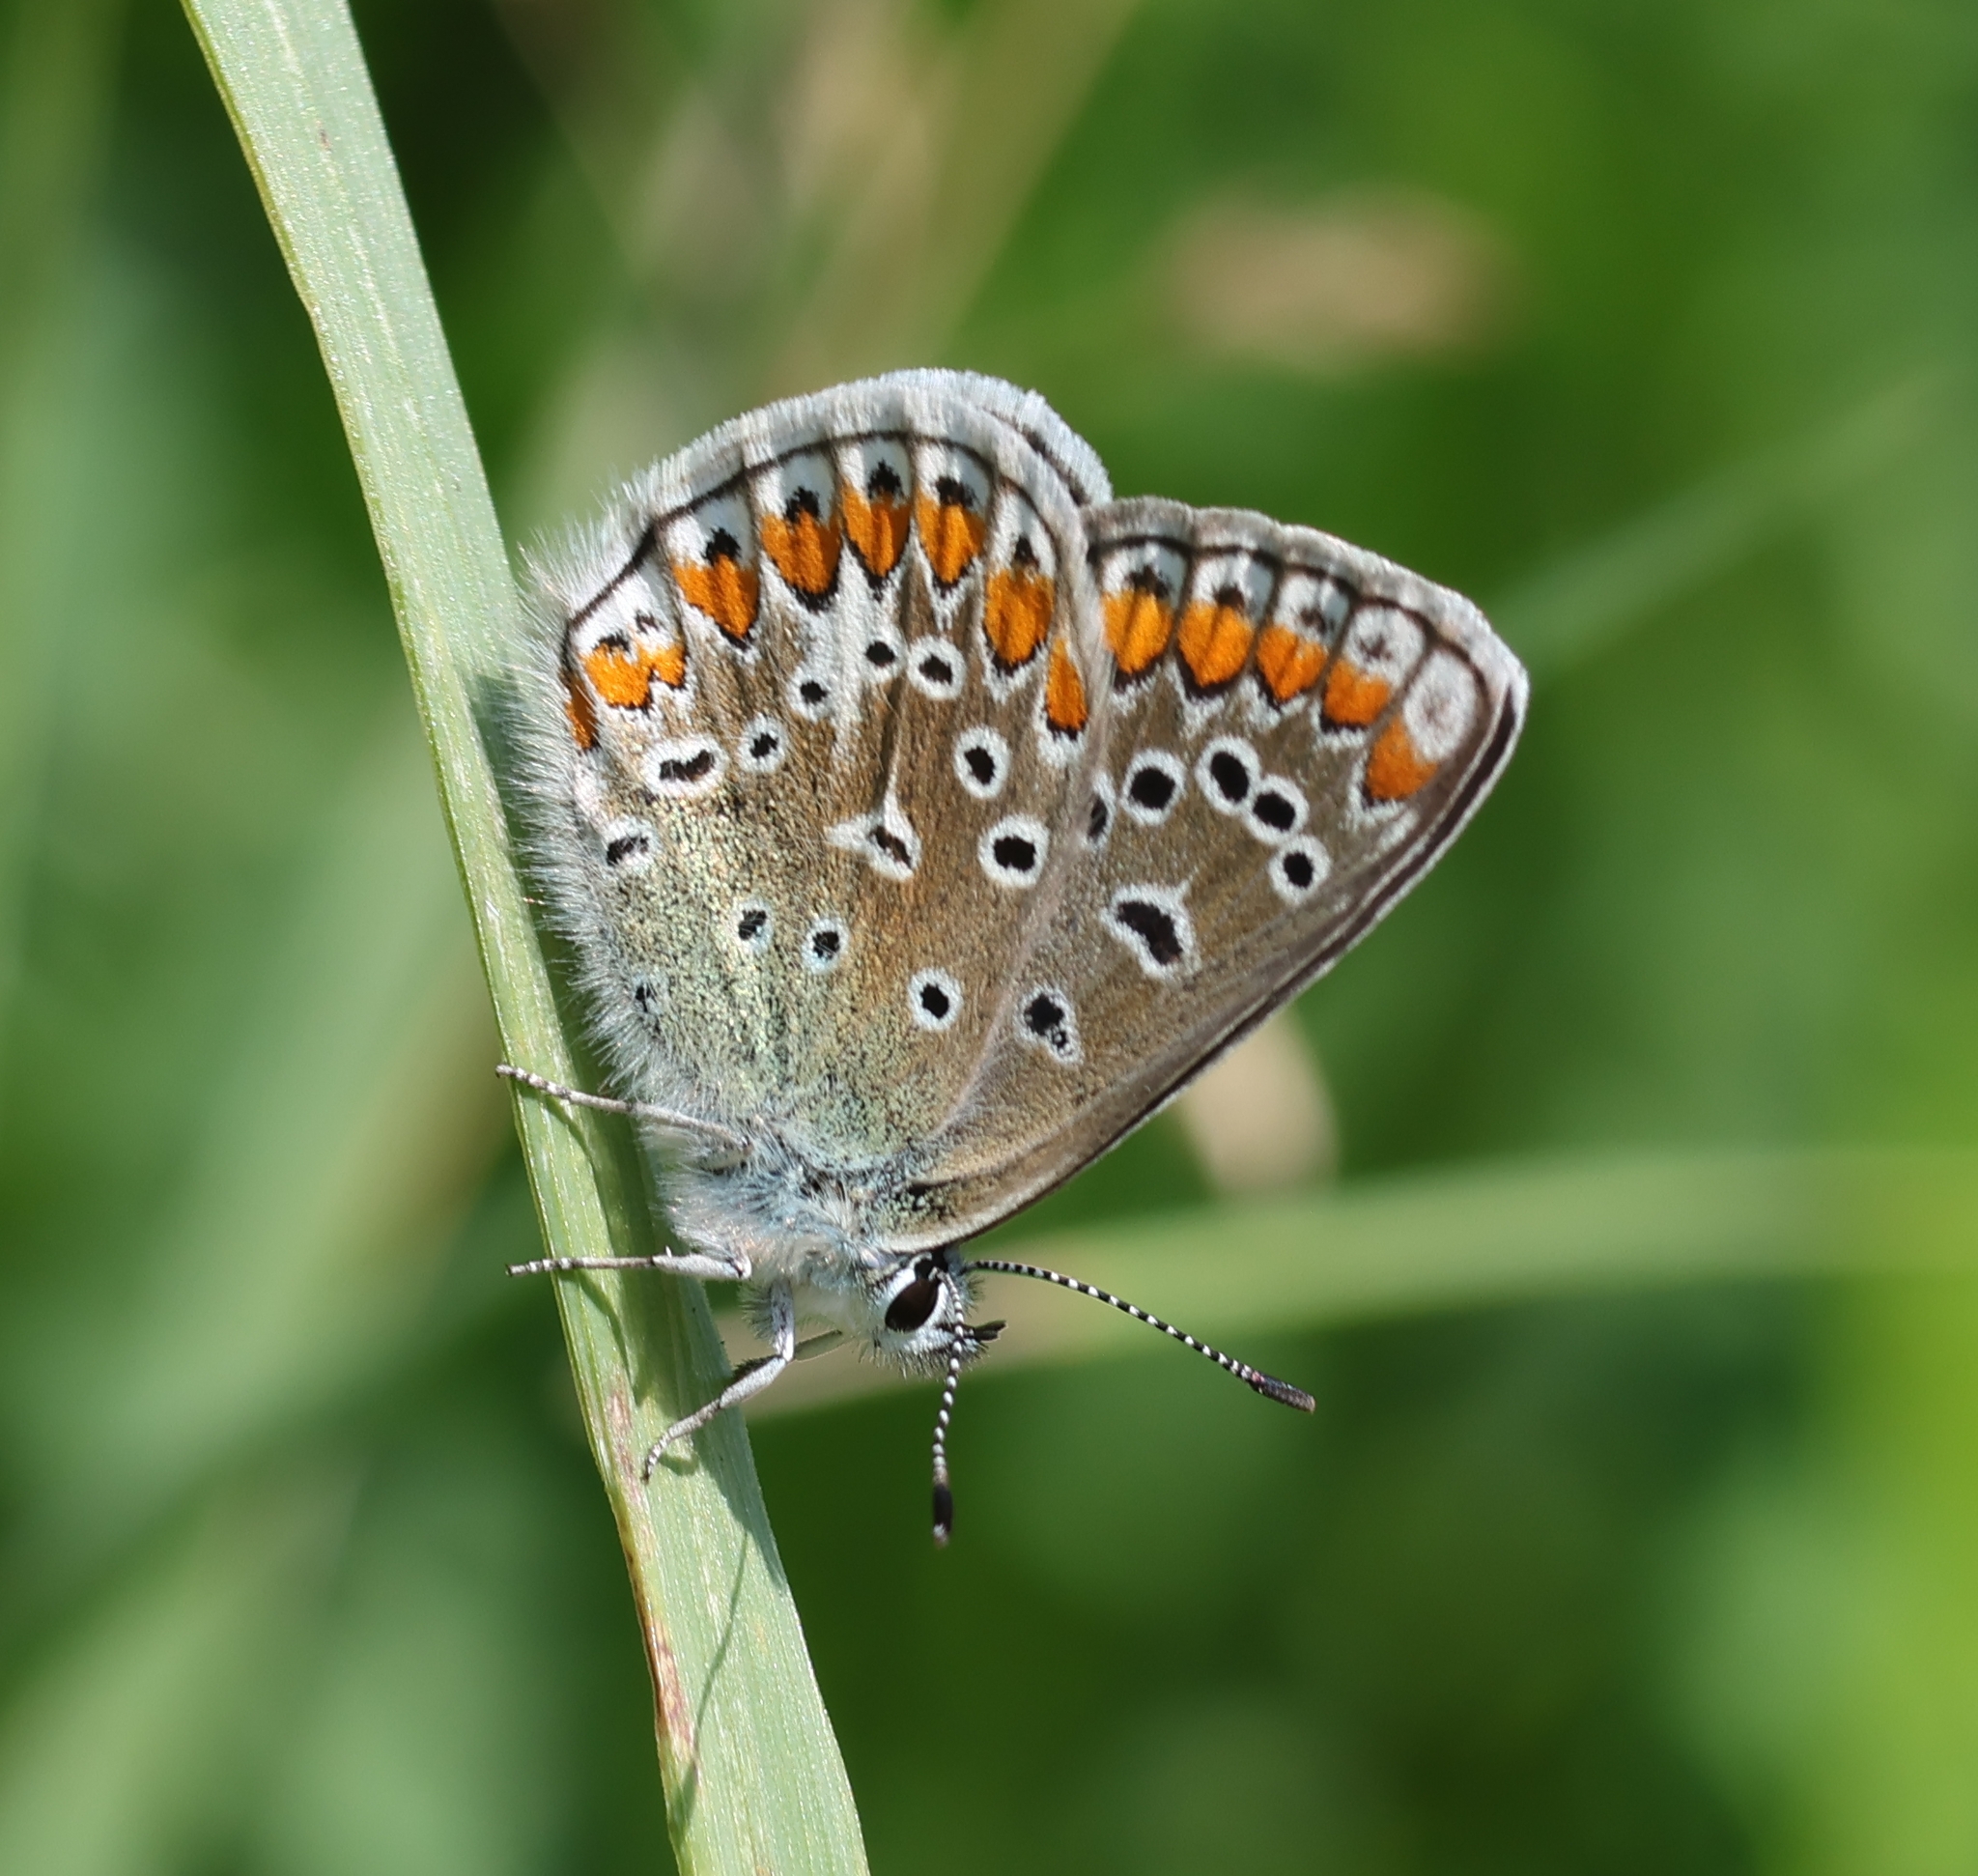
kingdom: Animalia
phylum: Arthropoda
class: Insecta
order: Lepidoptera
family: Lycaenidae
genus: Polyommatus
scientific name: Polyommatus icarus
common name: Common blue
